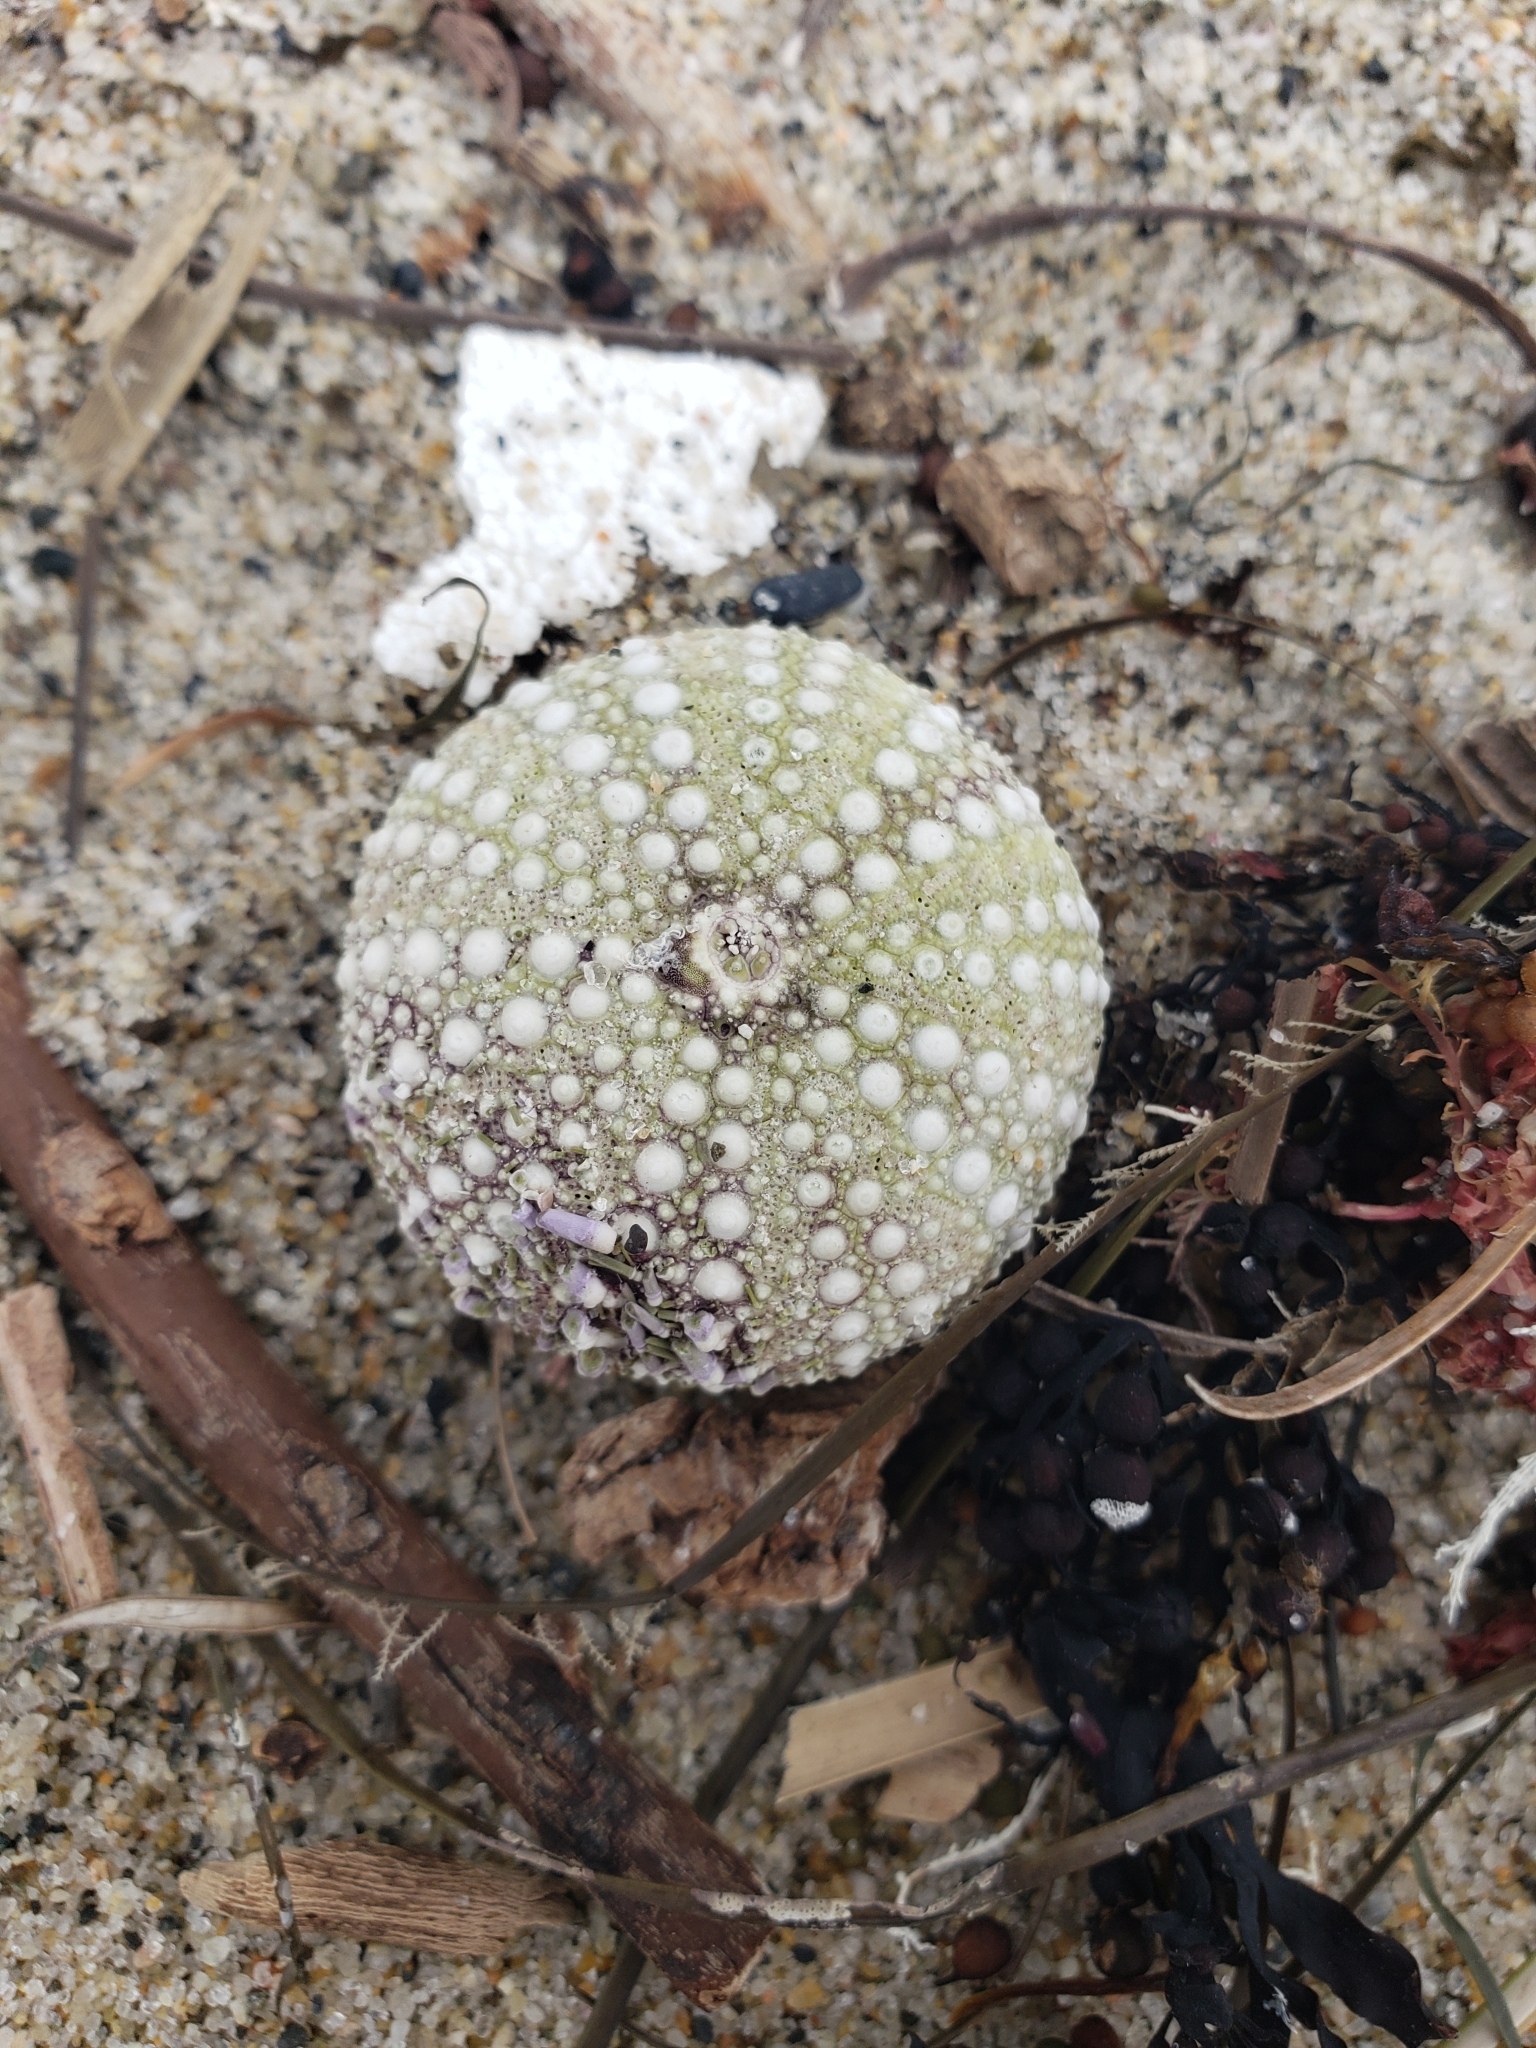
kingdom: Animalia
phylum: Echinodermata
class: Echinoidea
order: Camarodonta
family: Strongylocentrotidae
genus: Strongylocentrotus
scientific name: Strongylocentrotus purpuratus
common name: Purple sea urchin
